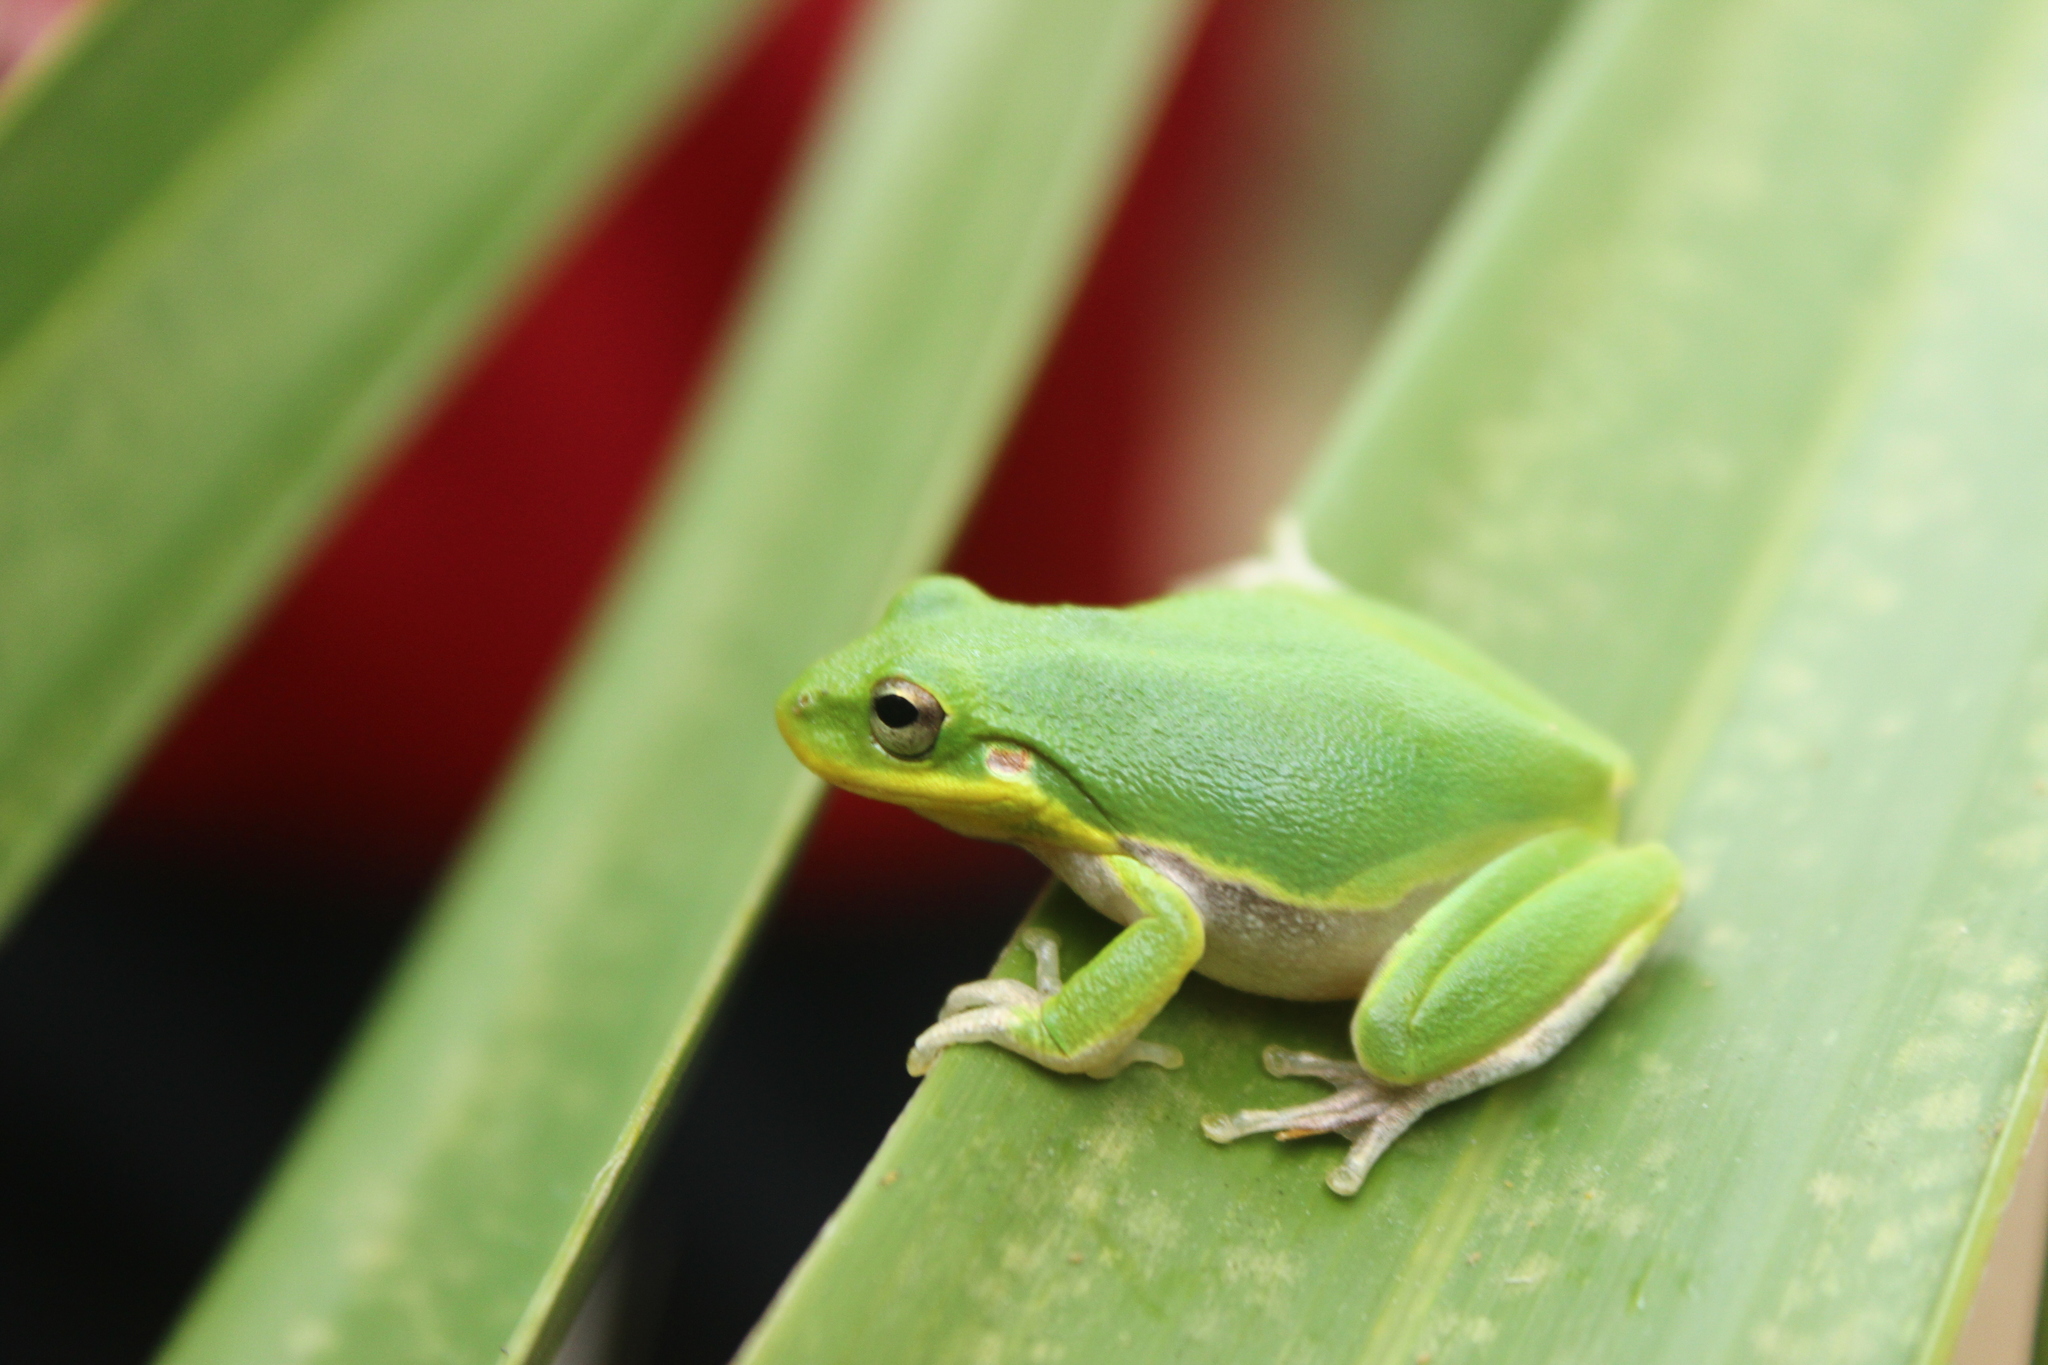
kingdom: Animalia
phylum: Chordata
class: Amphibia
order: Anura
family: Hylidae
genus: Dryophytes
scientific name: Dryophytes squirellus
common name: Squirrel treefrog
